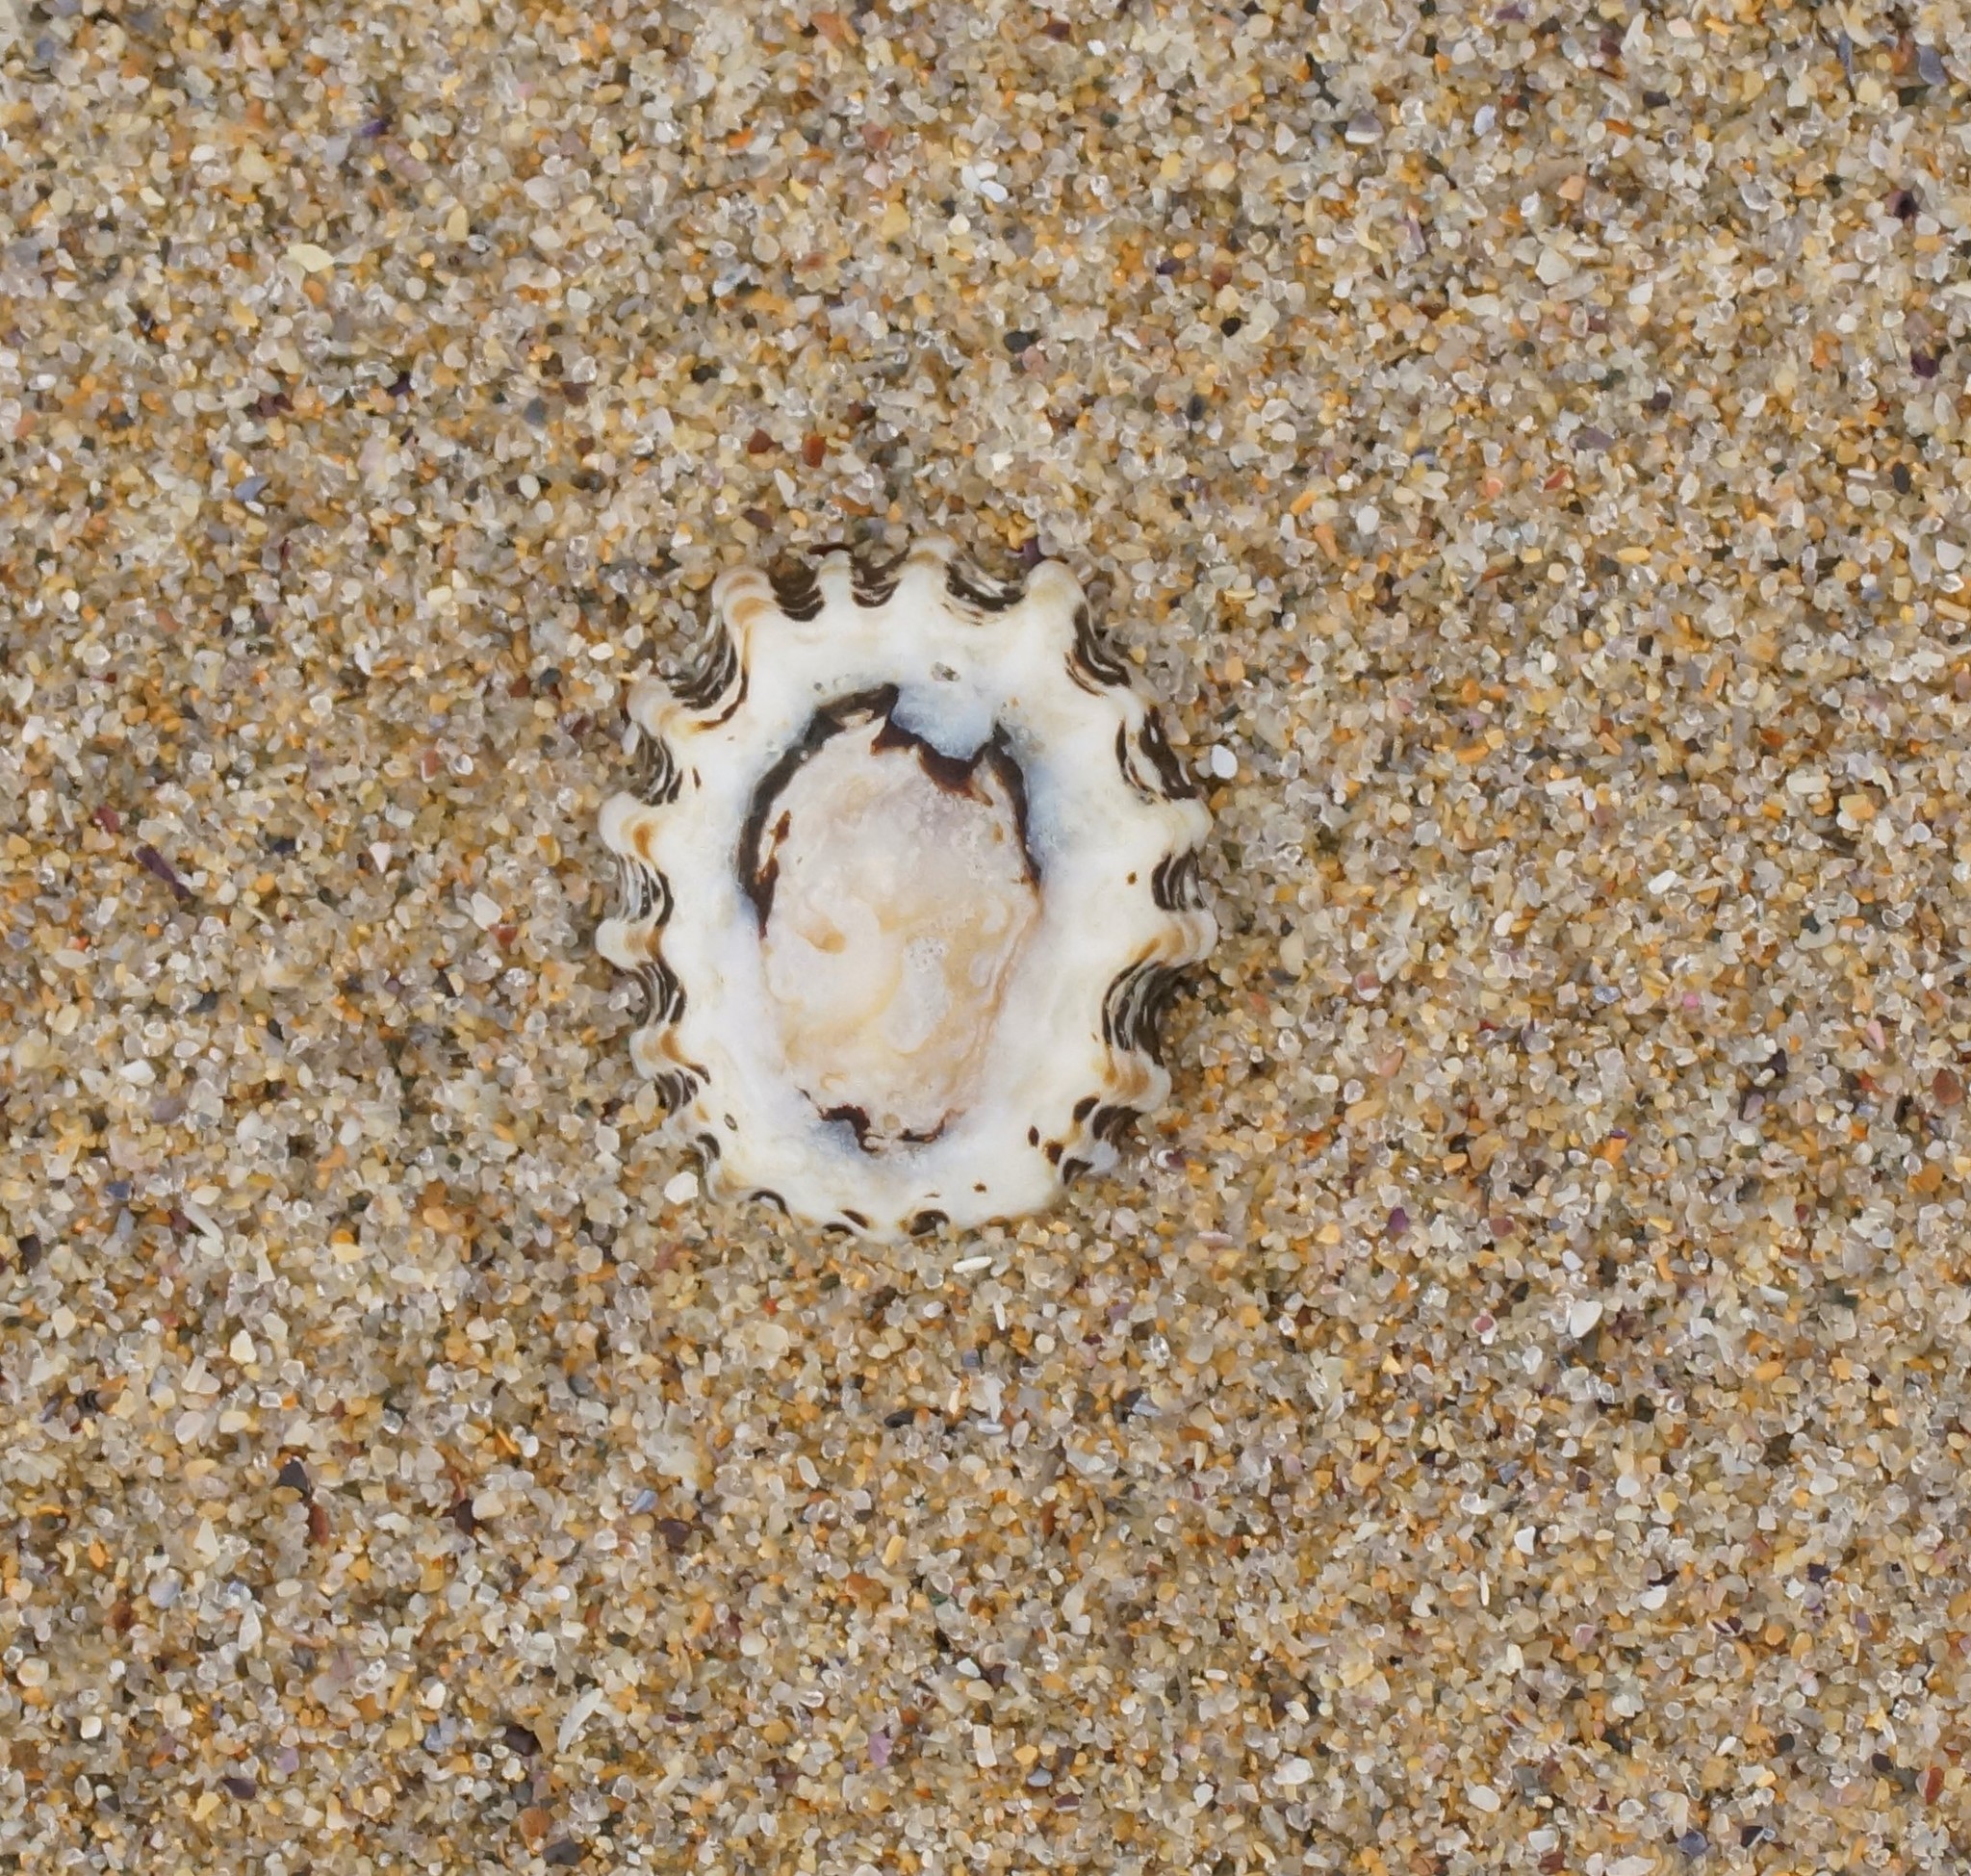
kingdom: Animalia
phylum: Mollusca
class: Gastropoda
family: Lottiidae
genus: Patelloida
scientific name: Patelloida alticostata
